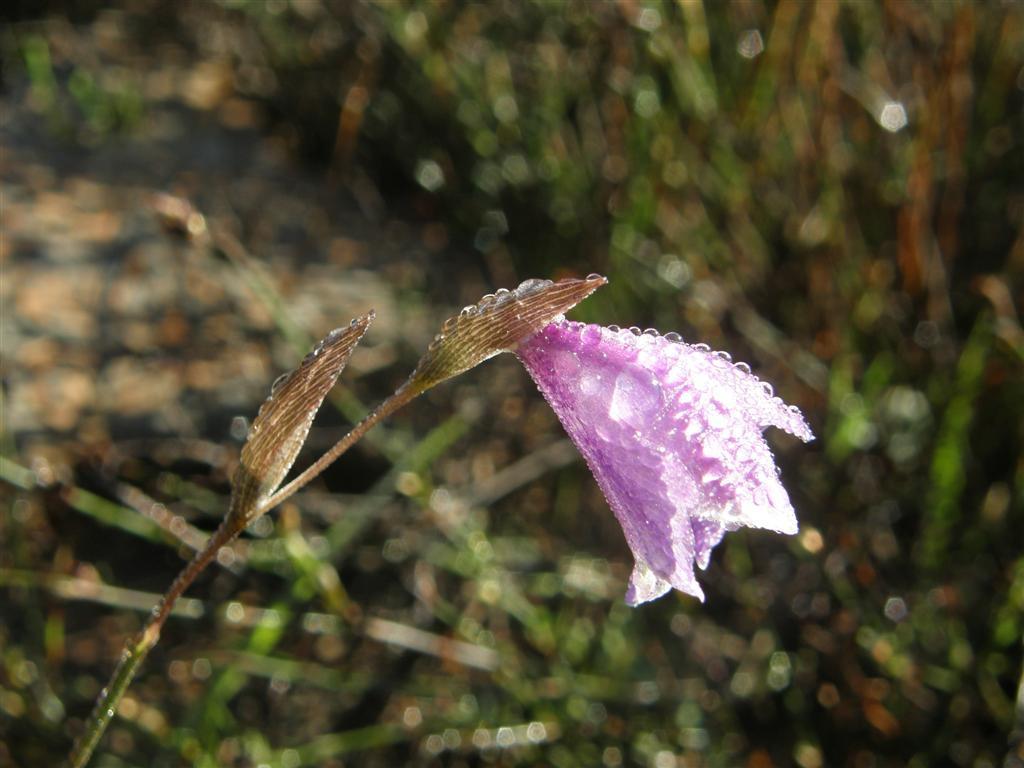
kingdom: Plantae
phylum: Tracheophyta
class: Liliopsida
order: Asparagales
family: Iridaceae
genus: Gladiolus
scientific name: Gladiolus rogersii
